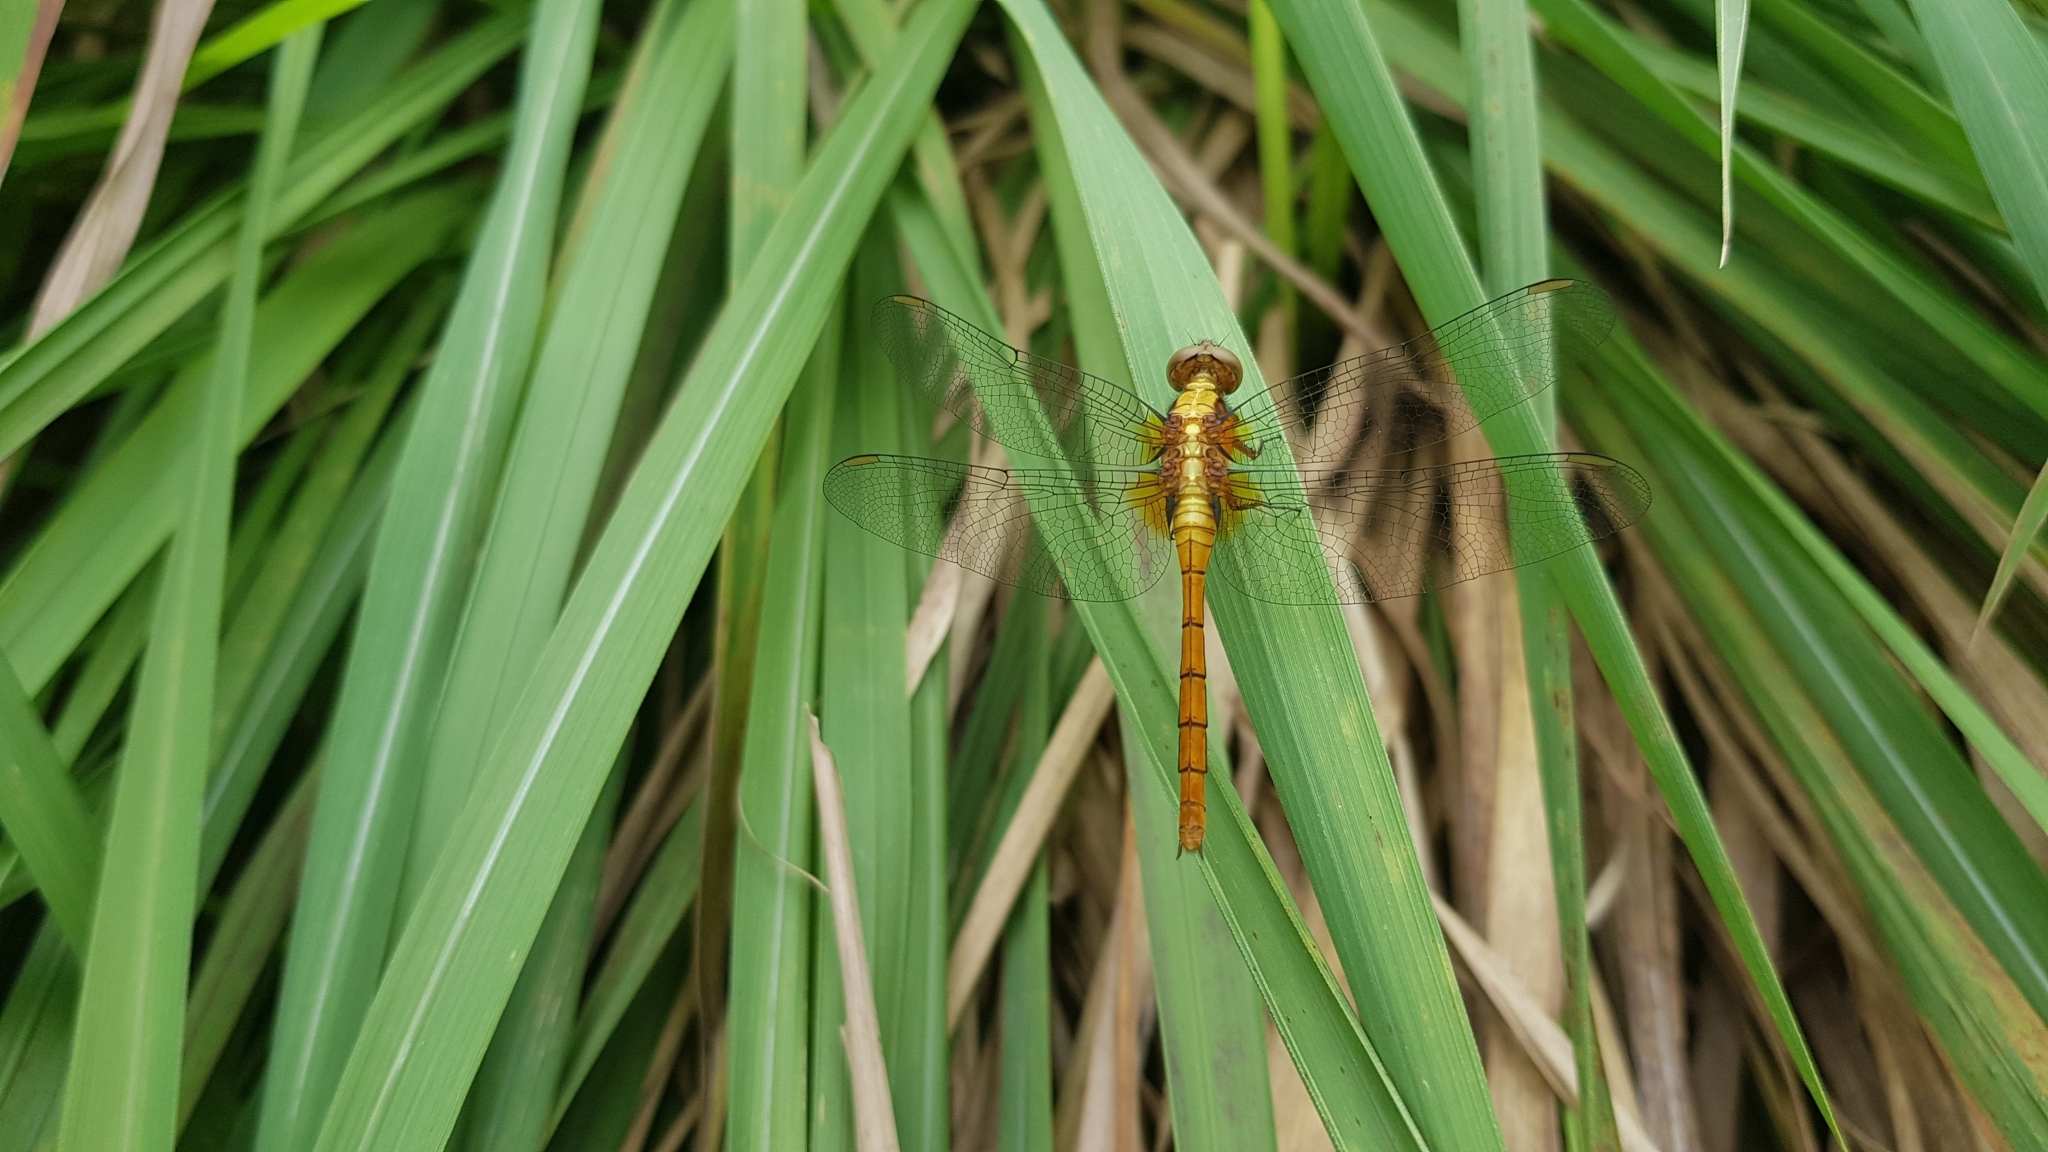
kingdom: Animalia
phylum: Arthropoda
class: Insecta
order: Odonata
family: Libellulidae
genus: Orthetrum
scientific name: Orthetrum villosovittatum
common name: Firery skimmer
